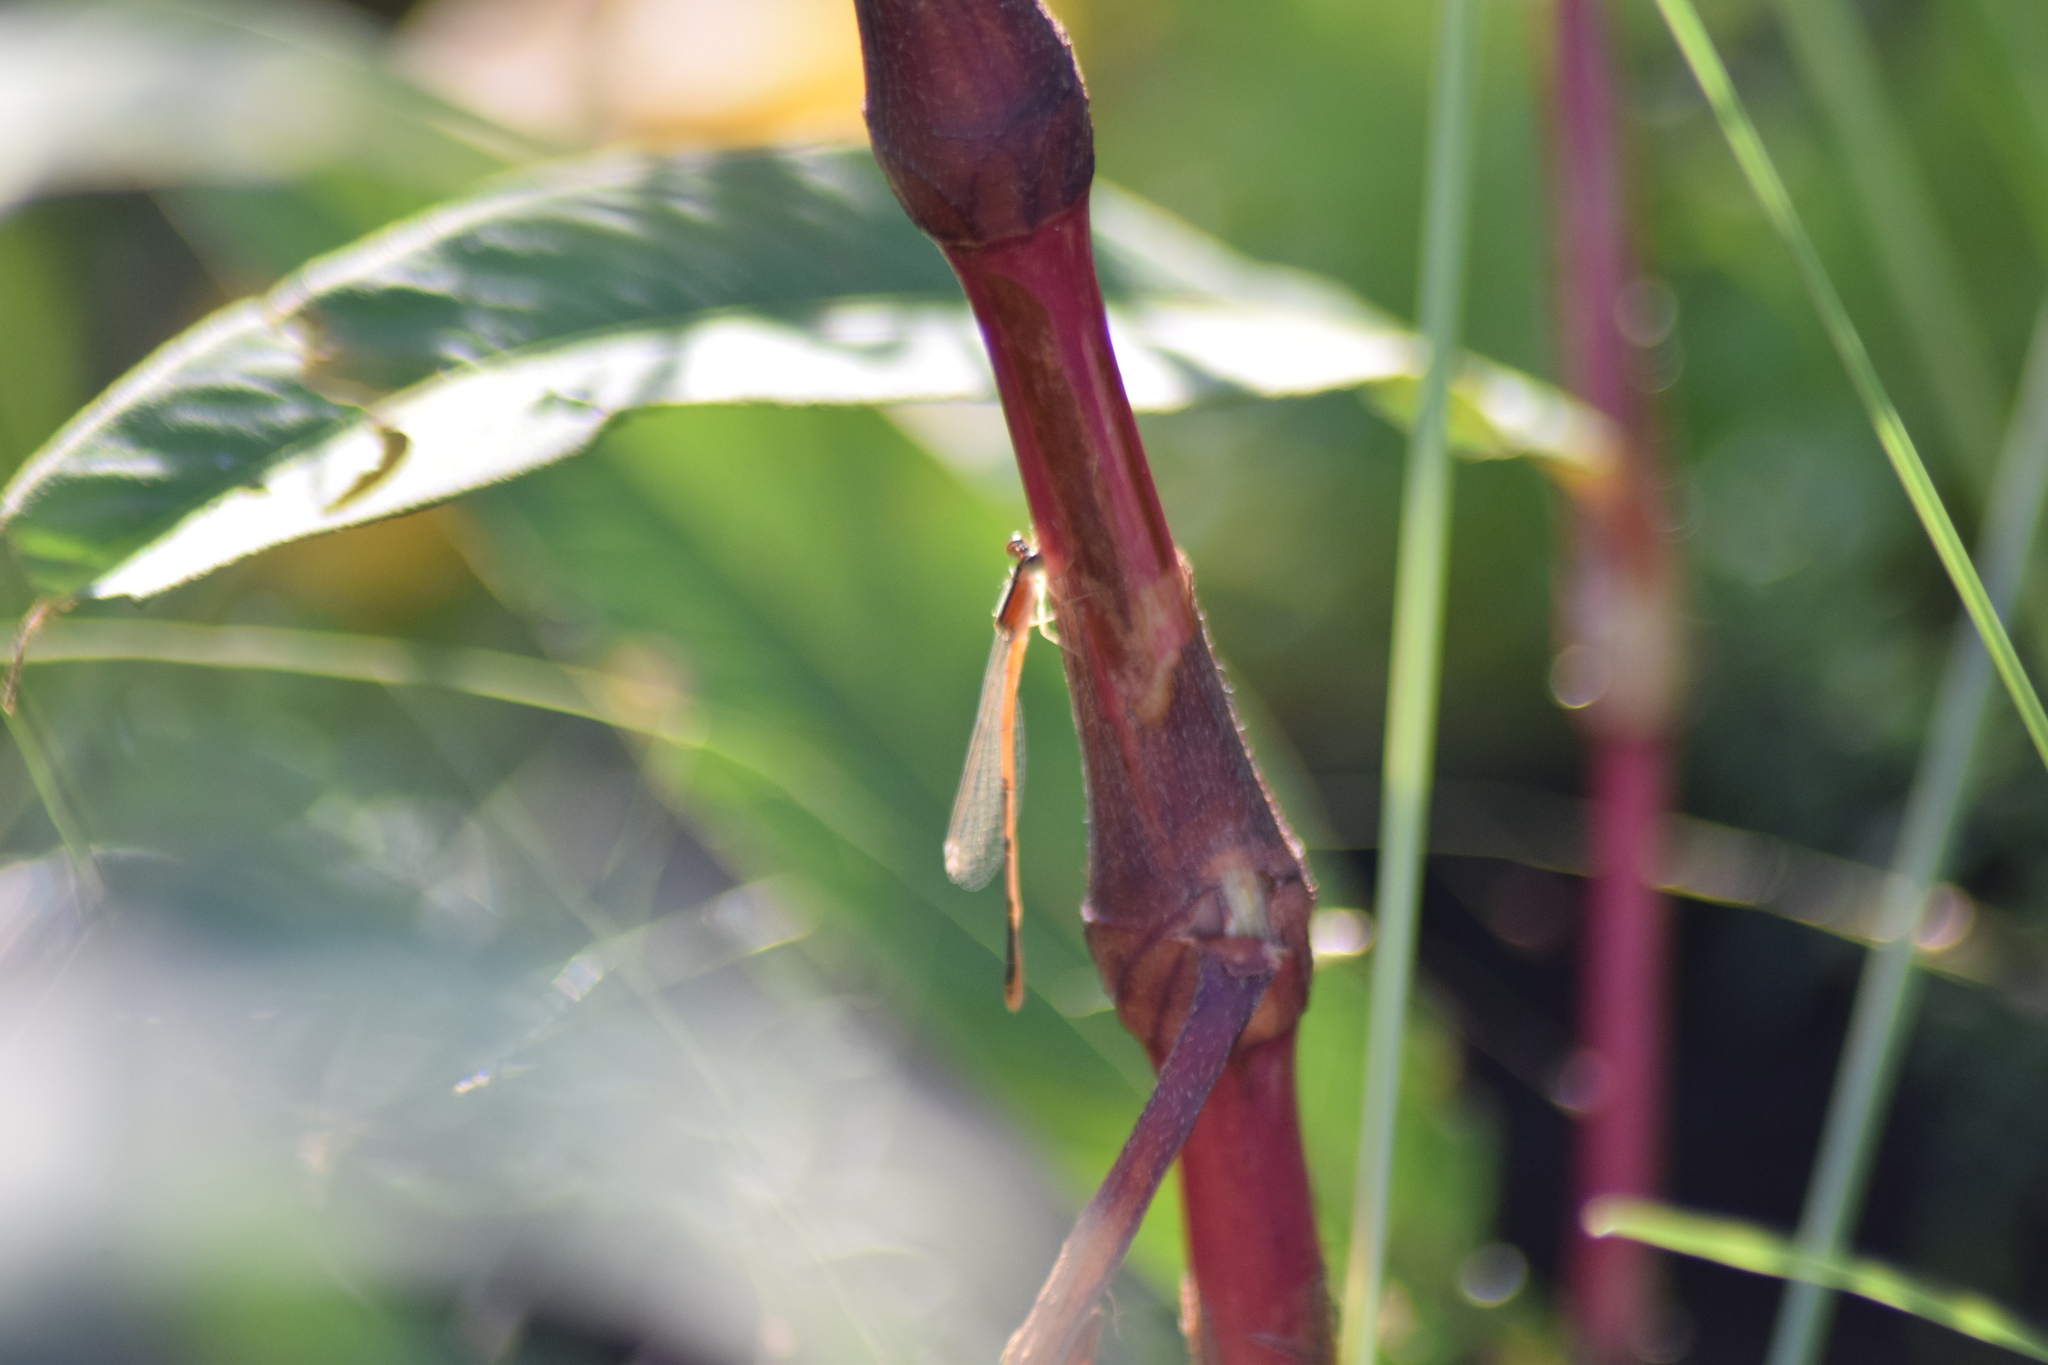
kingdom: Animalia
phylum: Arthropoda
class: Insecta
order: Odonata
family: Coenagrionidae
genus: Ischnura
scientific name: Ischnura hastata
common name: Citrine forktail
